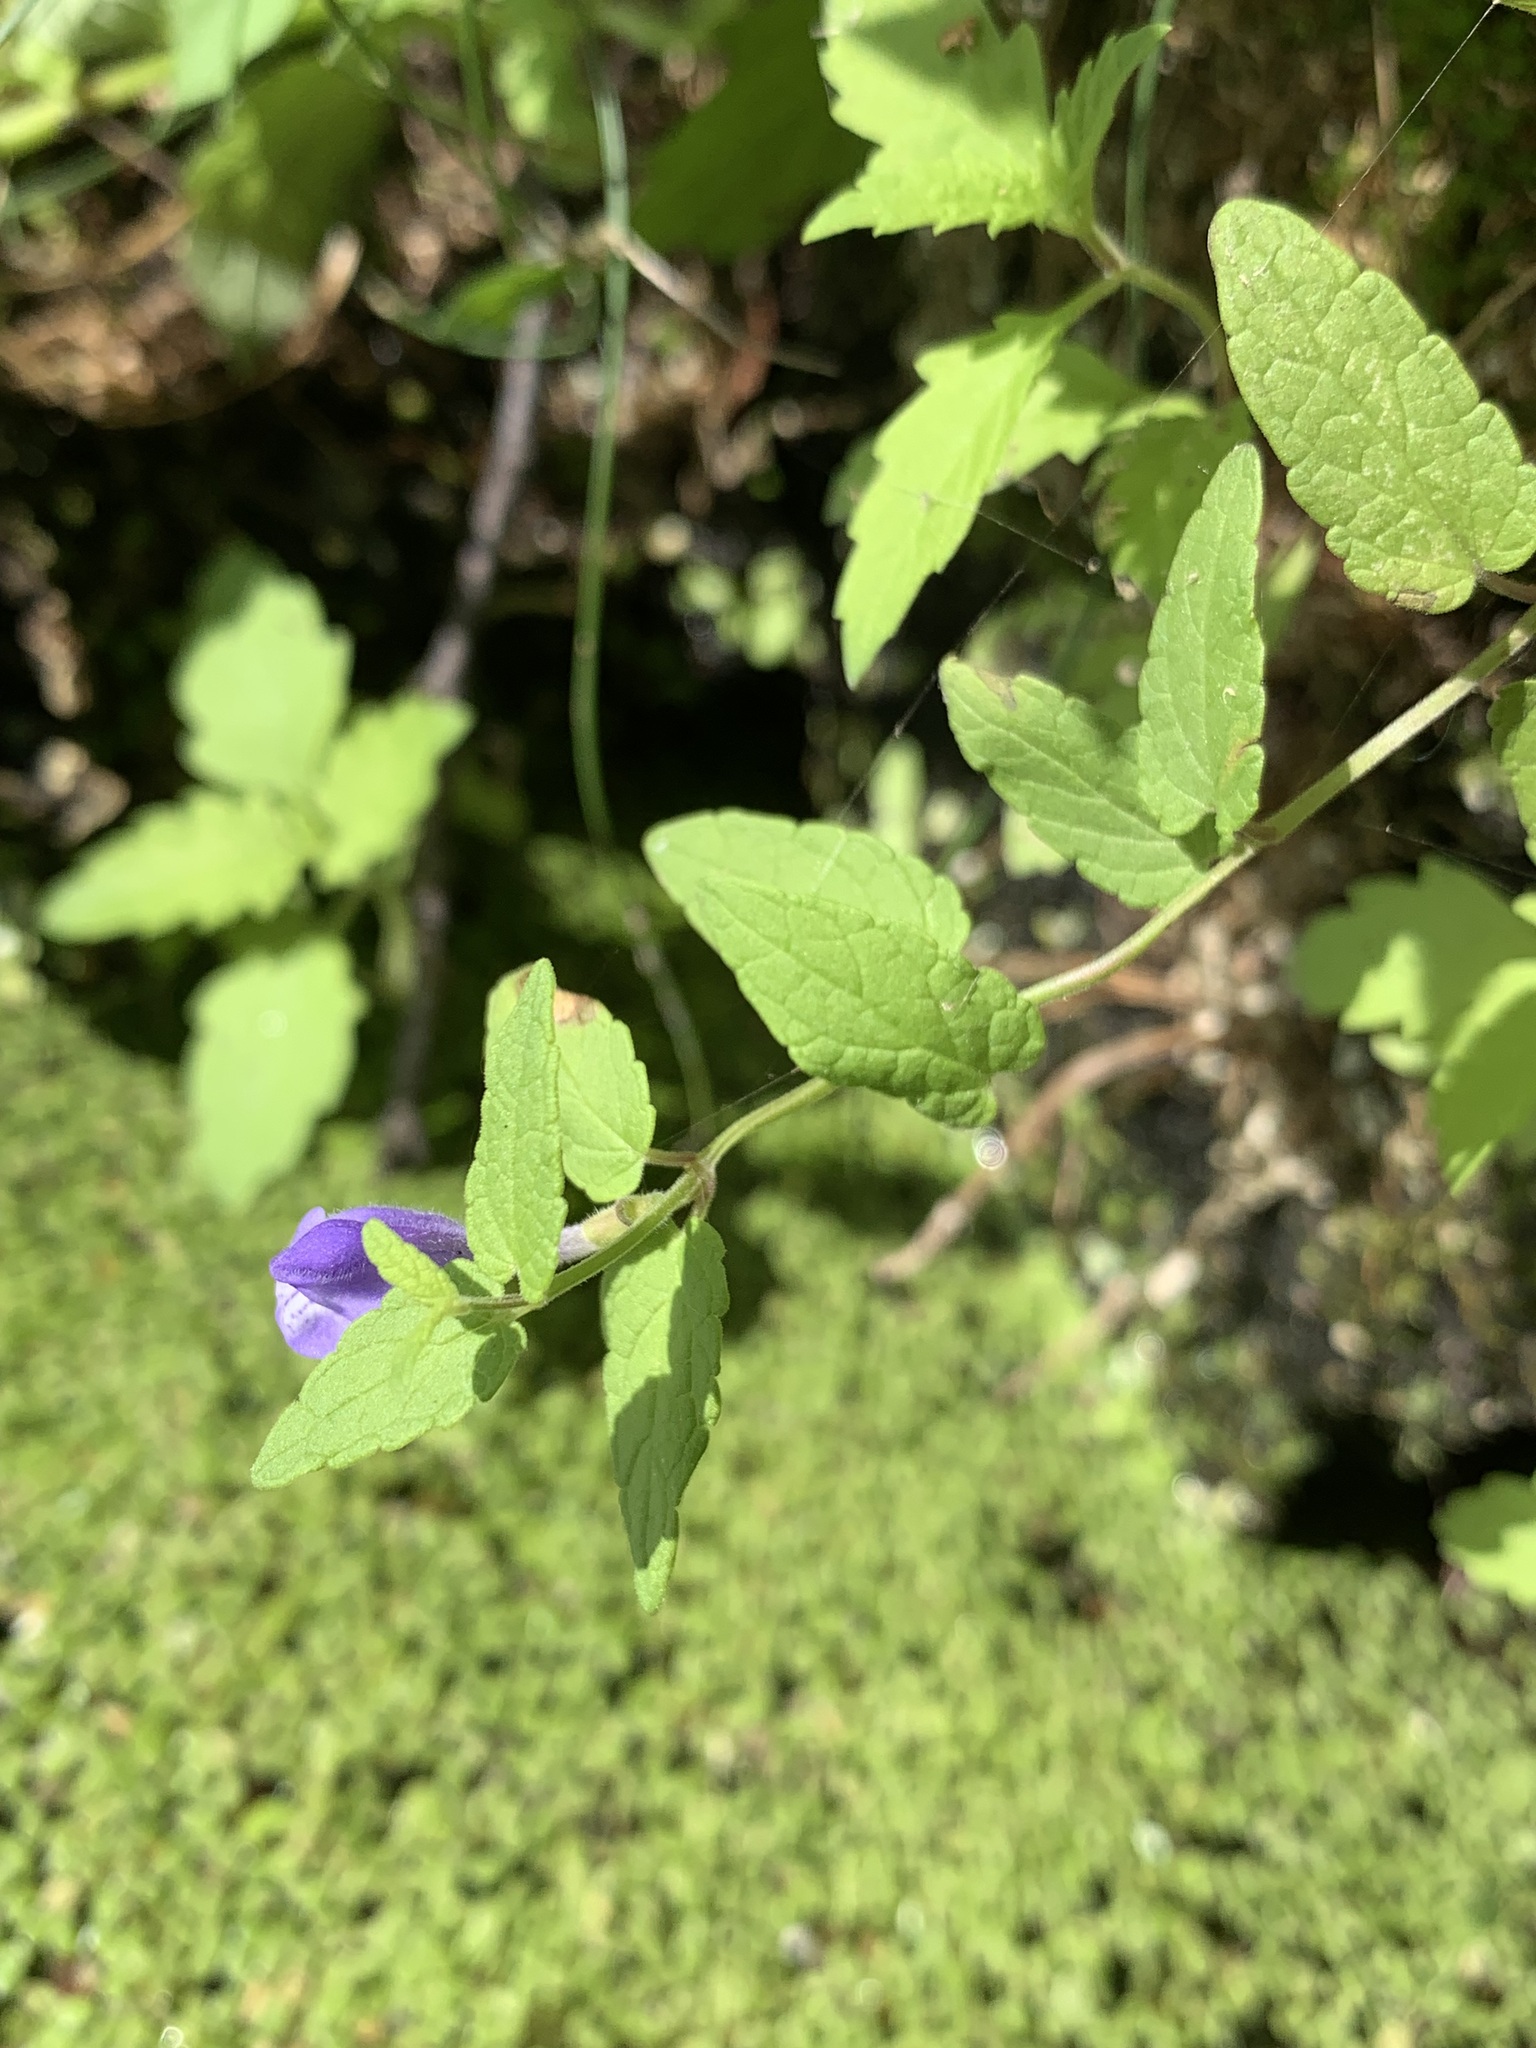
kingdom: Plantae
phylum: Tracheophyta
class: Magnoliopsida
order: Lamiales
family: Lamiaceae
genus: Scutellaria
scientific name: Scutellaria galericulata
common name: Skullcap
